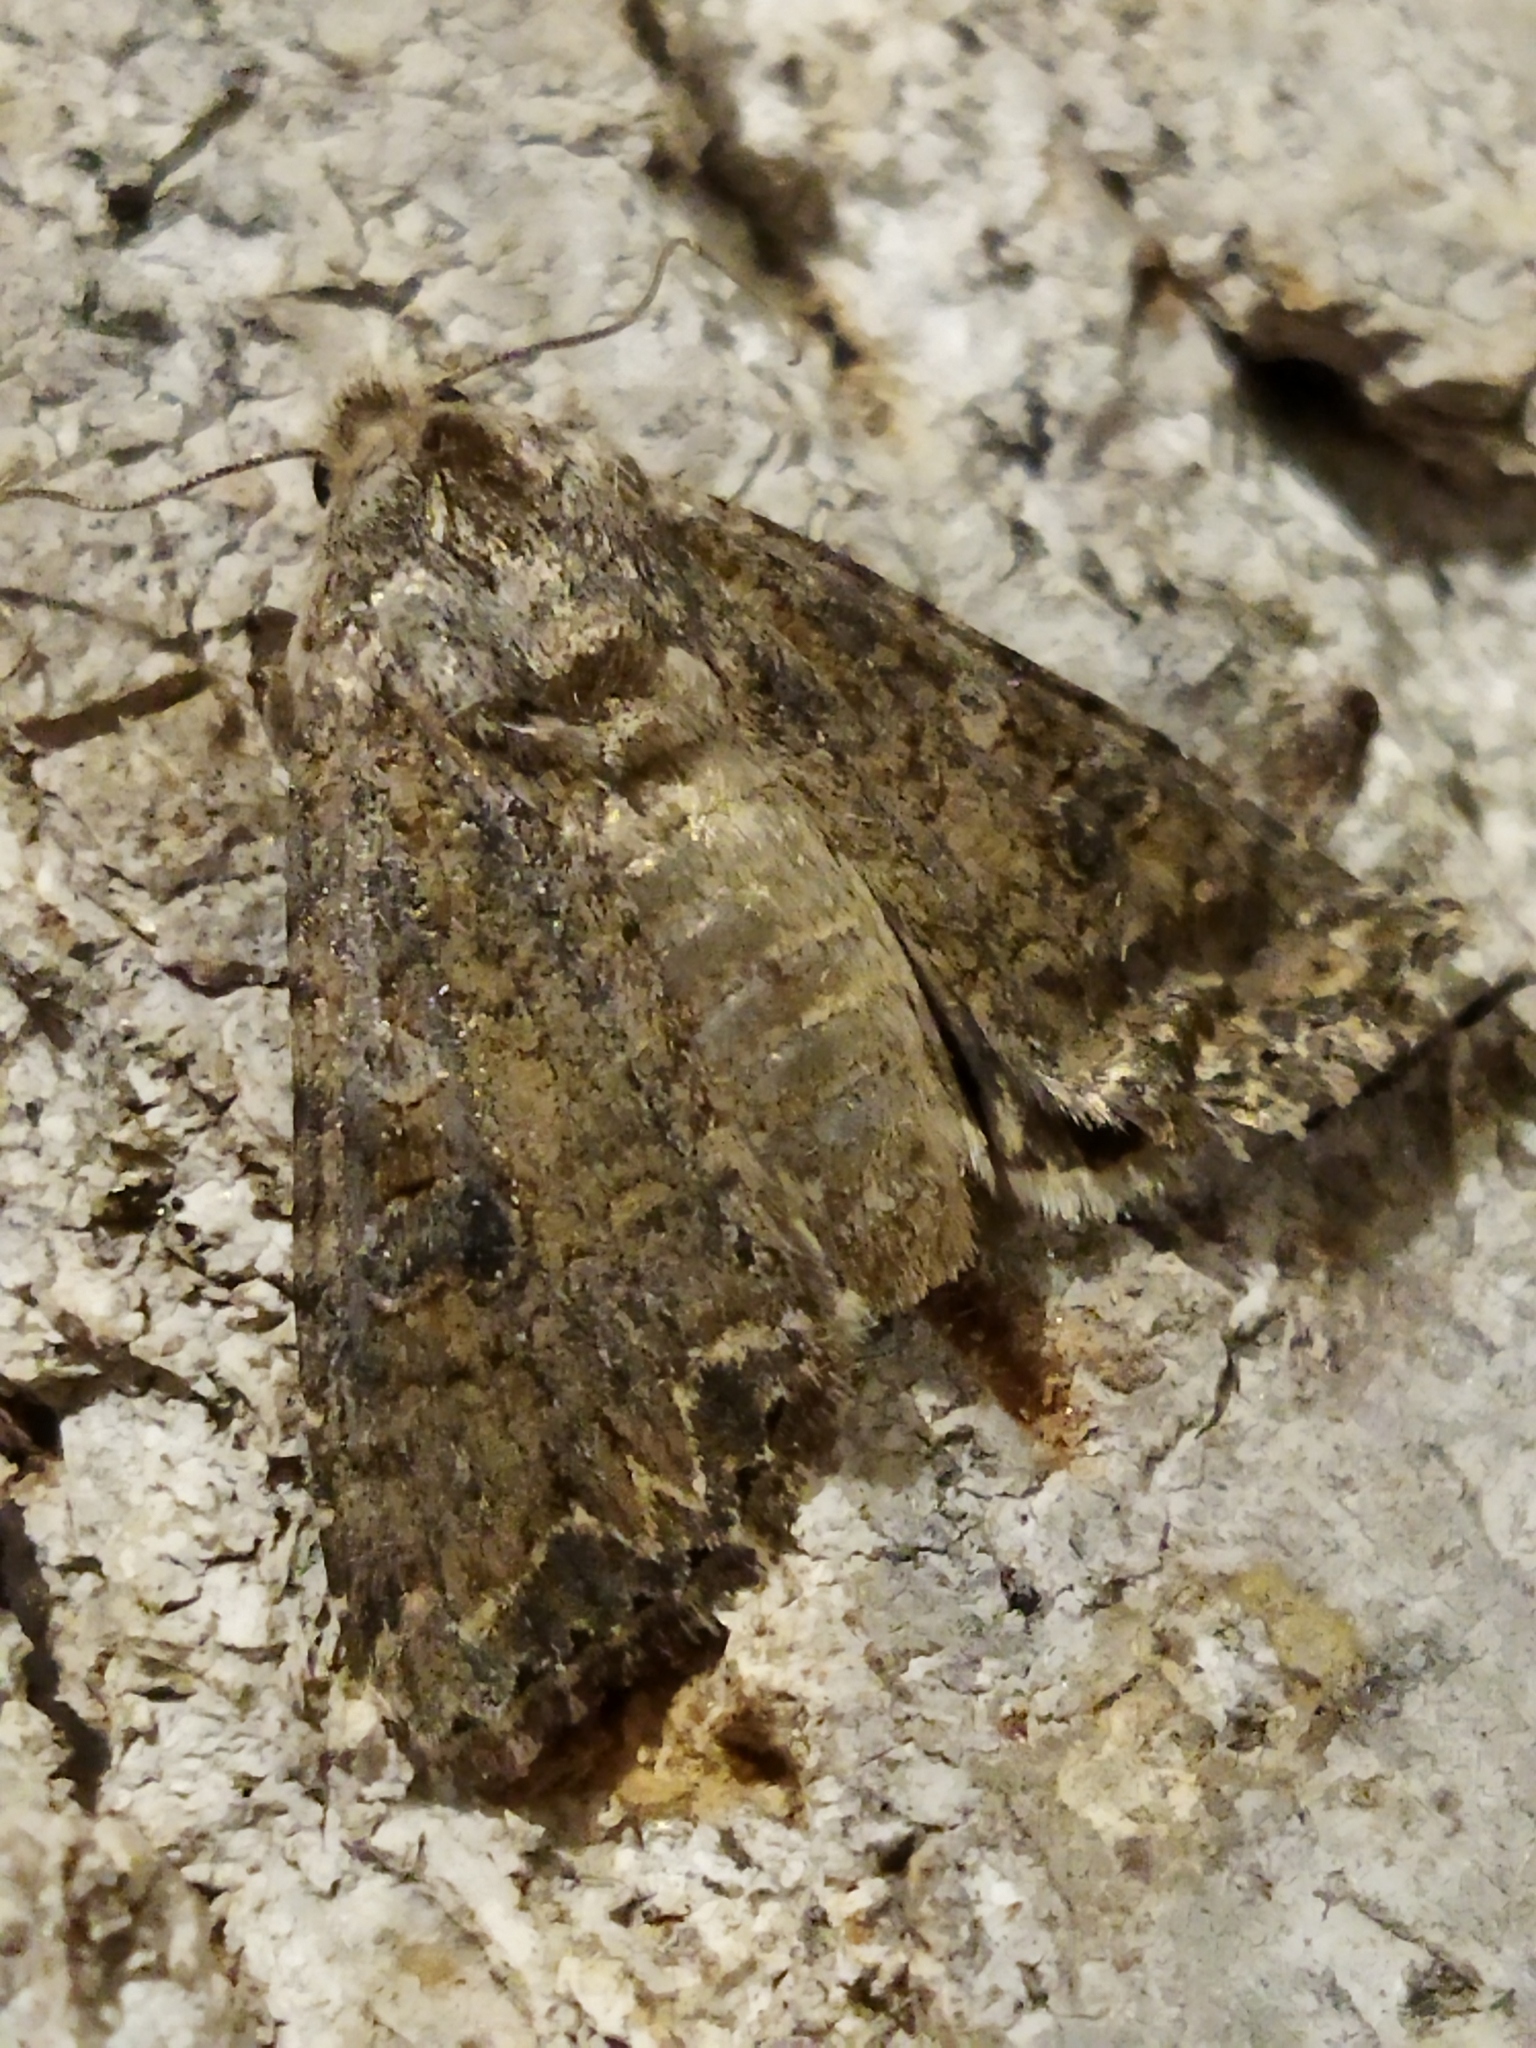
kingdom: Animalia
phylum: Arthropoda
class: Insecta
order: Lepidoptera
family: Noctuidae
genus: Anarta
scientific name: Anarta trifolii
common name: Clover cutworm moth
